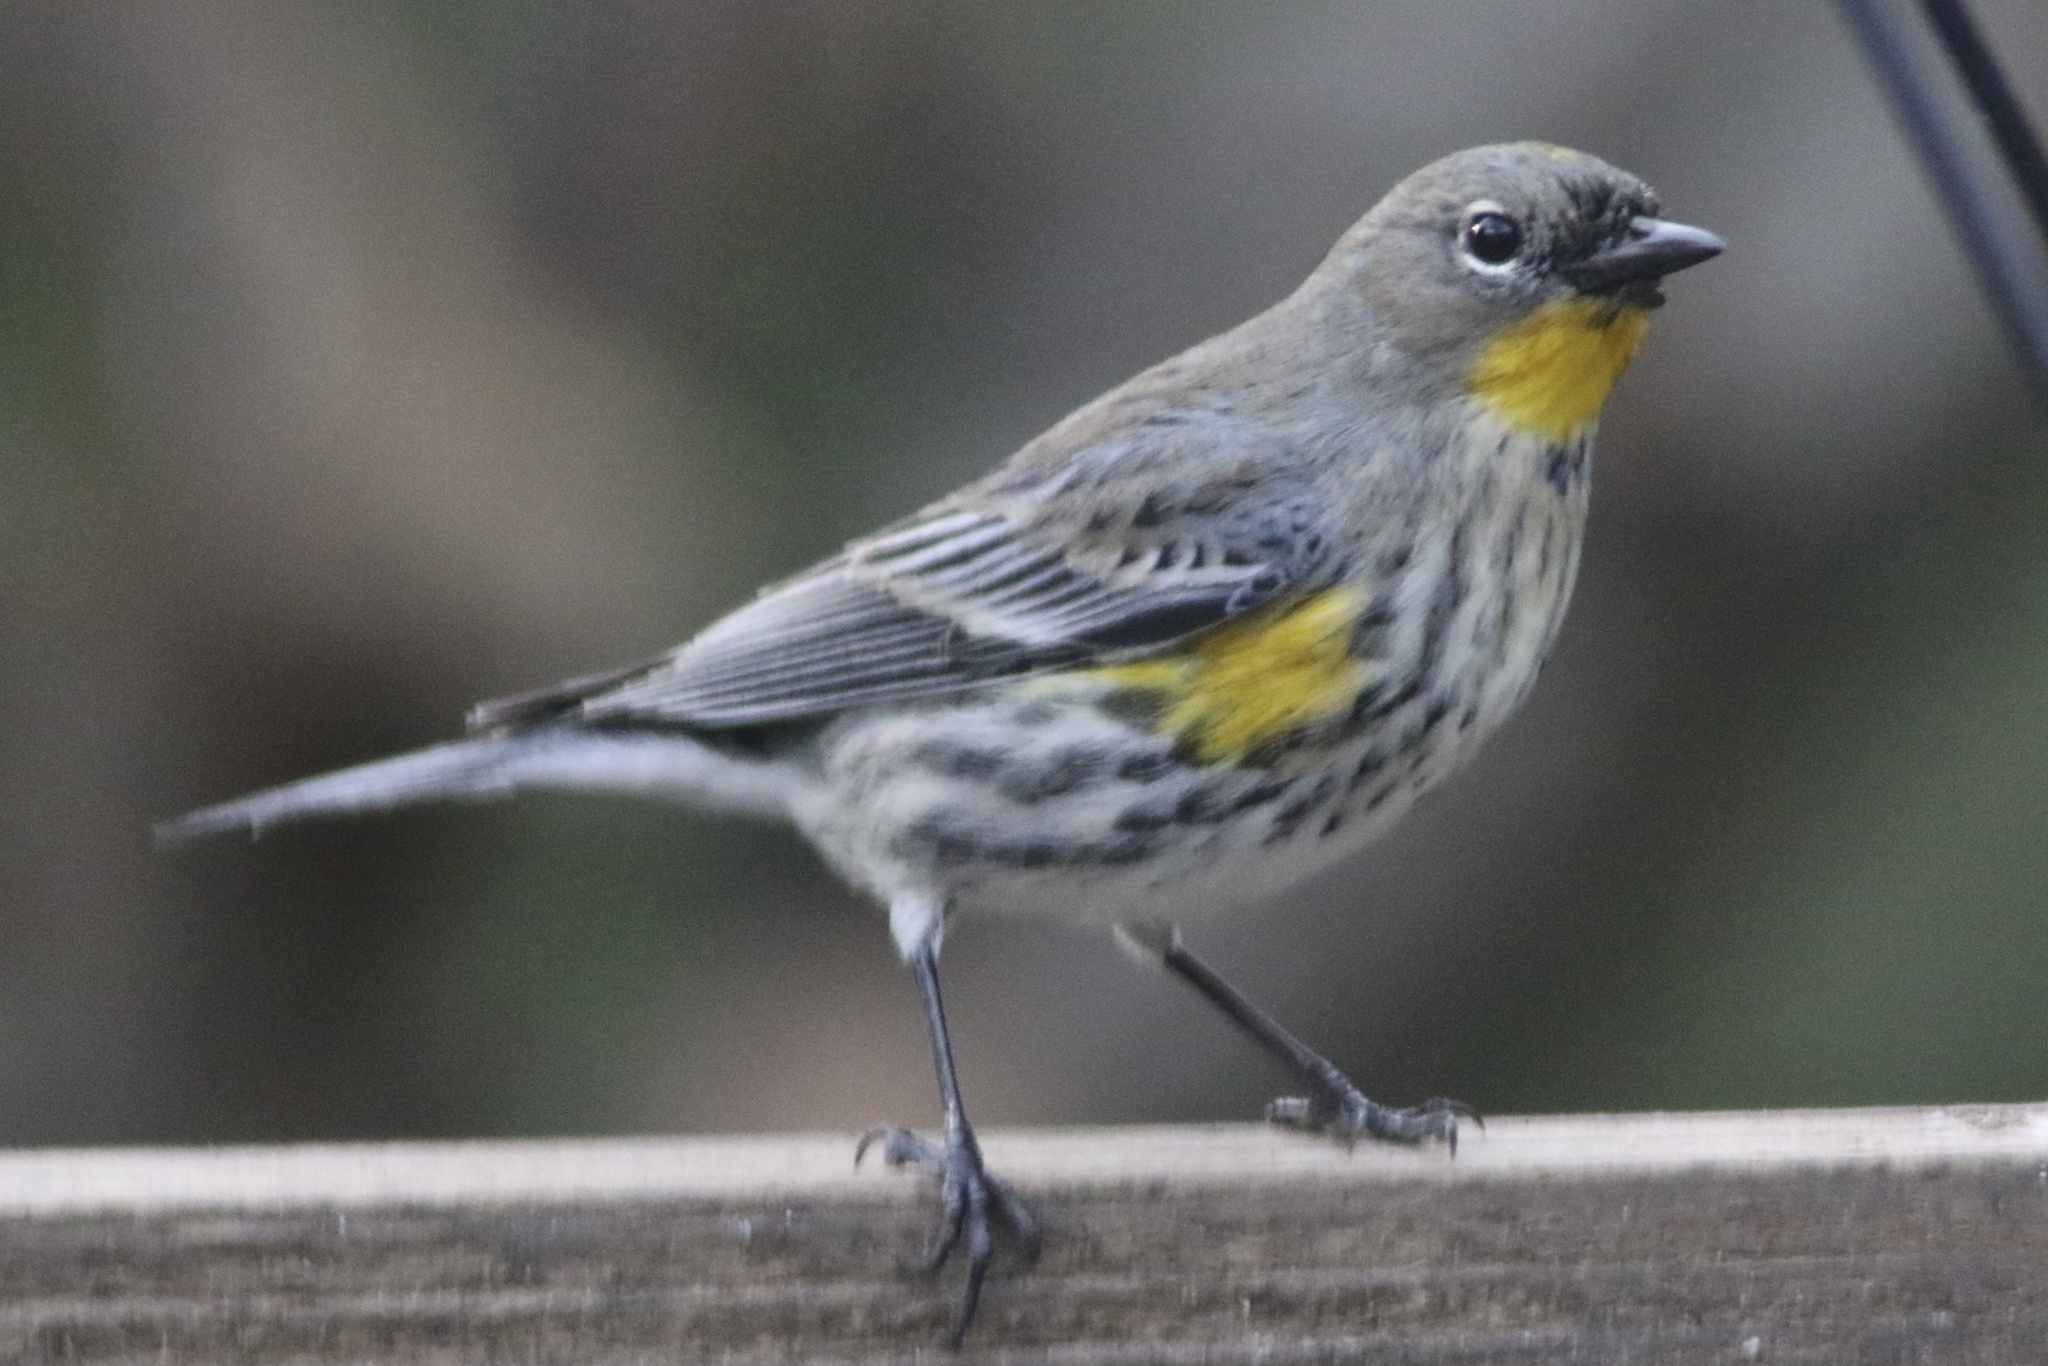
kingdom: Animalia
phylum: Chordata
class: Aves
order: Passeriformes
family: Parulidae
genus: Setophaga
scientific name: Setophaga coronata
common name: Myrtle warbler
